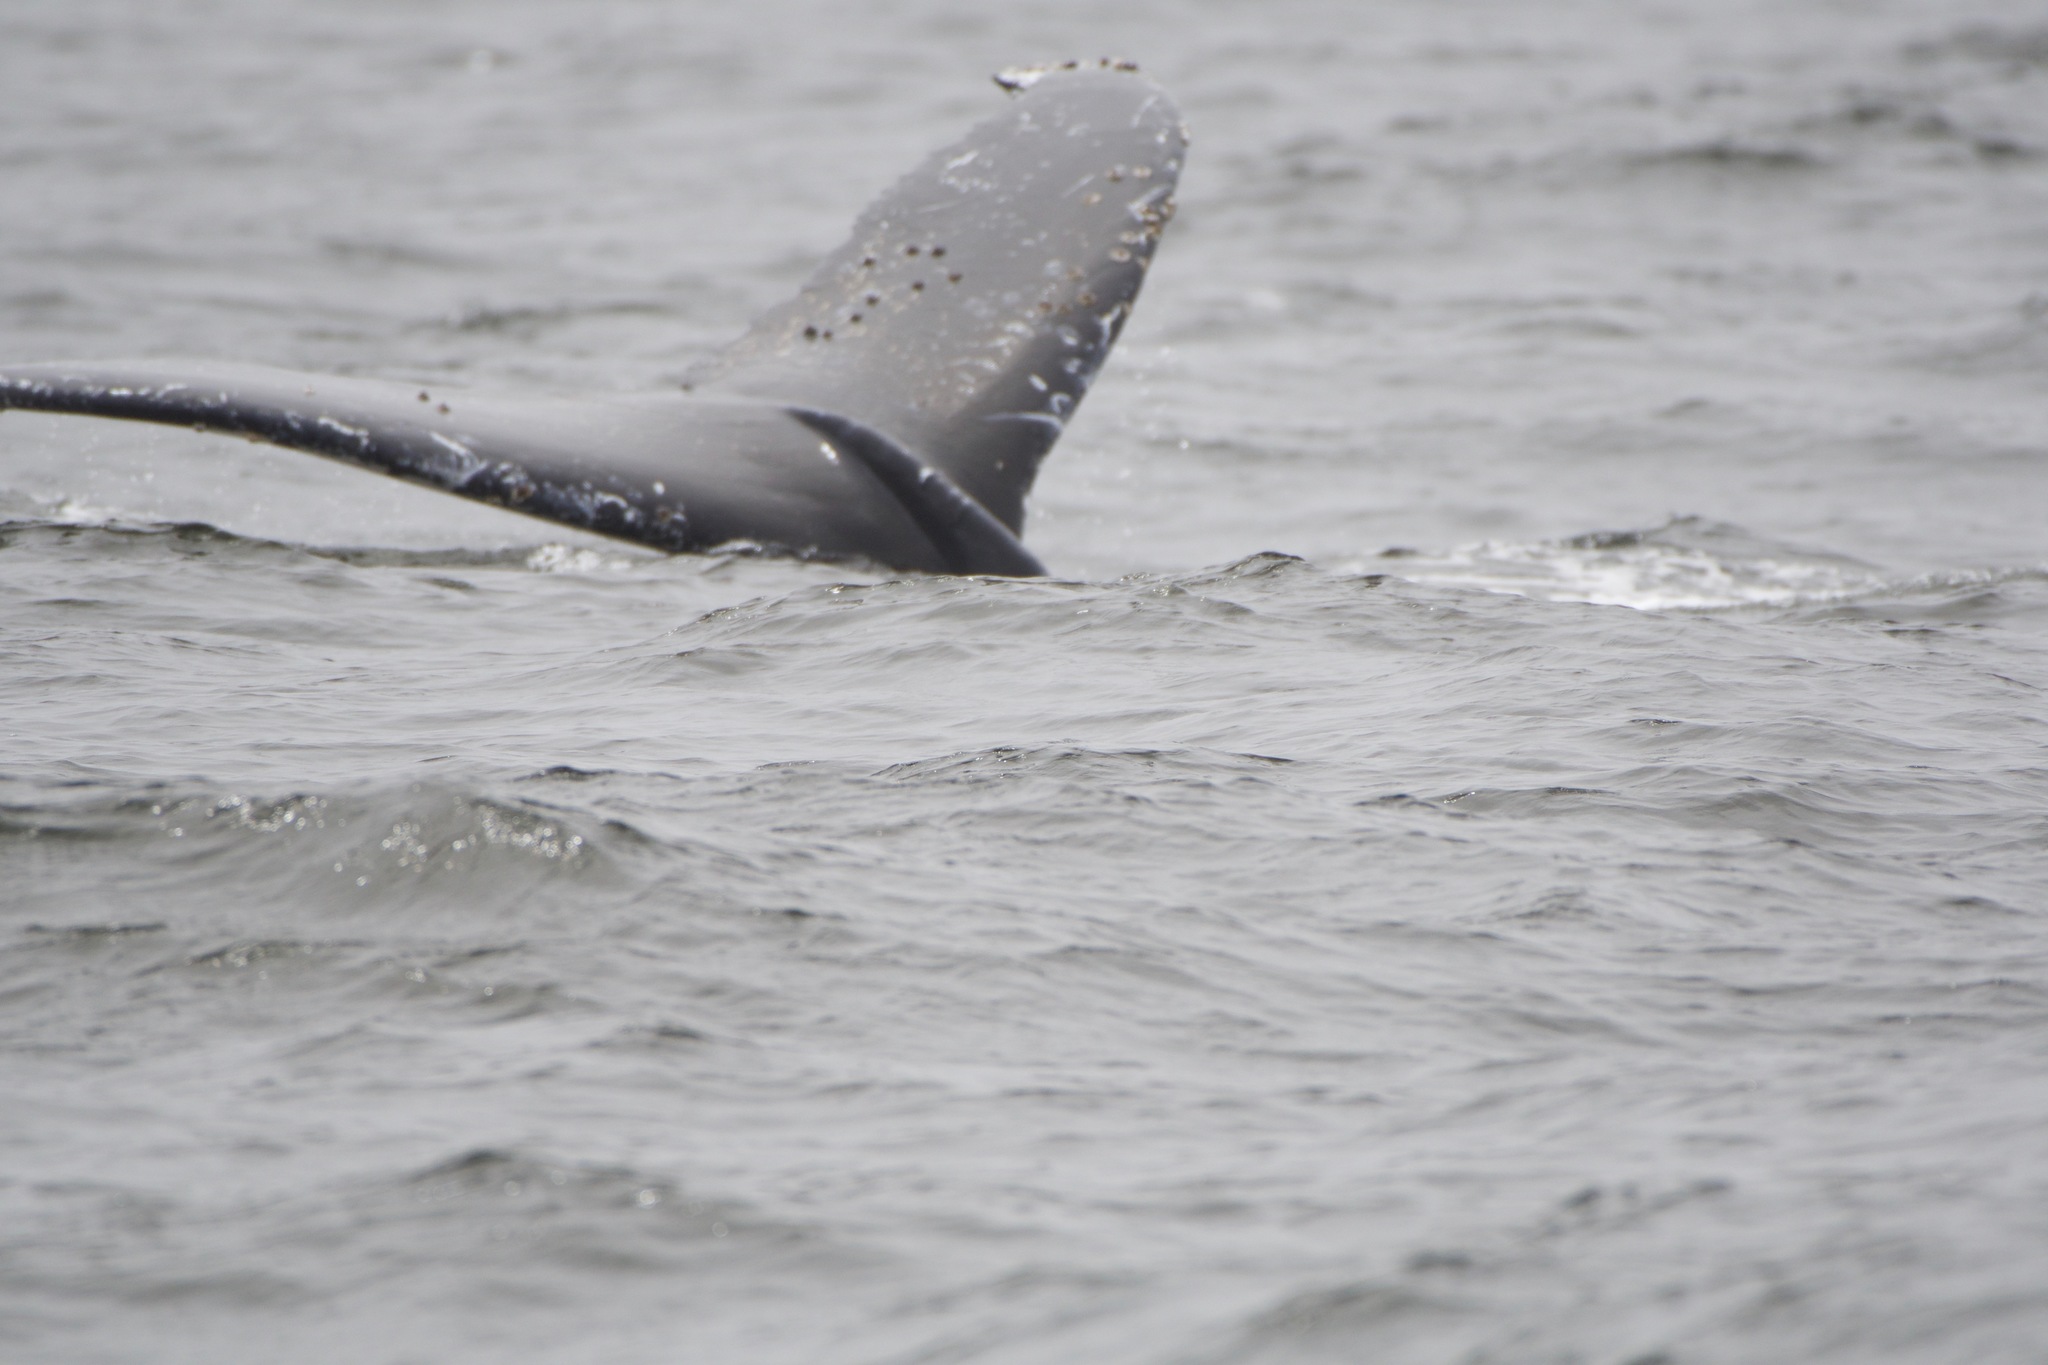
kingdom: Animalia
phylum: Chordata
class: Mammalia
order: Cetacea
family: Balaenopteridae
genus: Megaptera
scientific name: Megaptera novaeangliae
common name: Humpback whale
